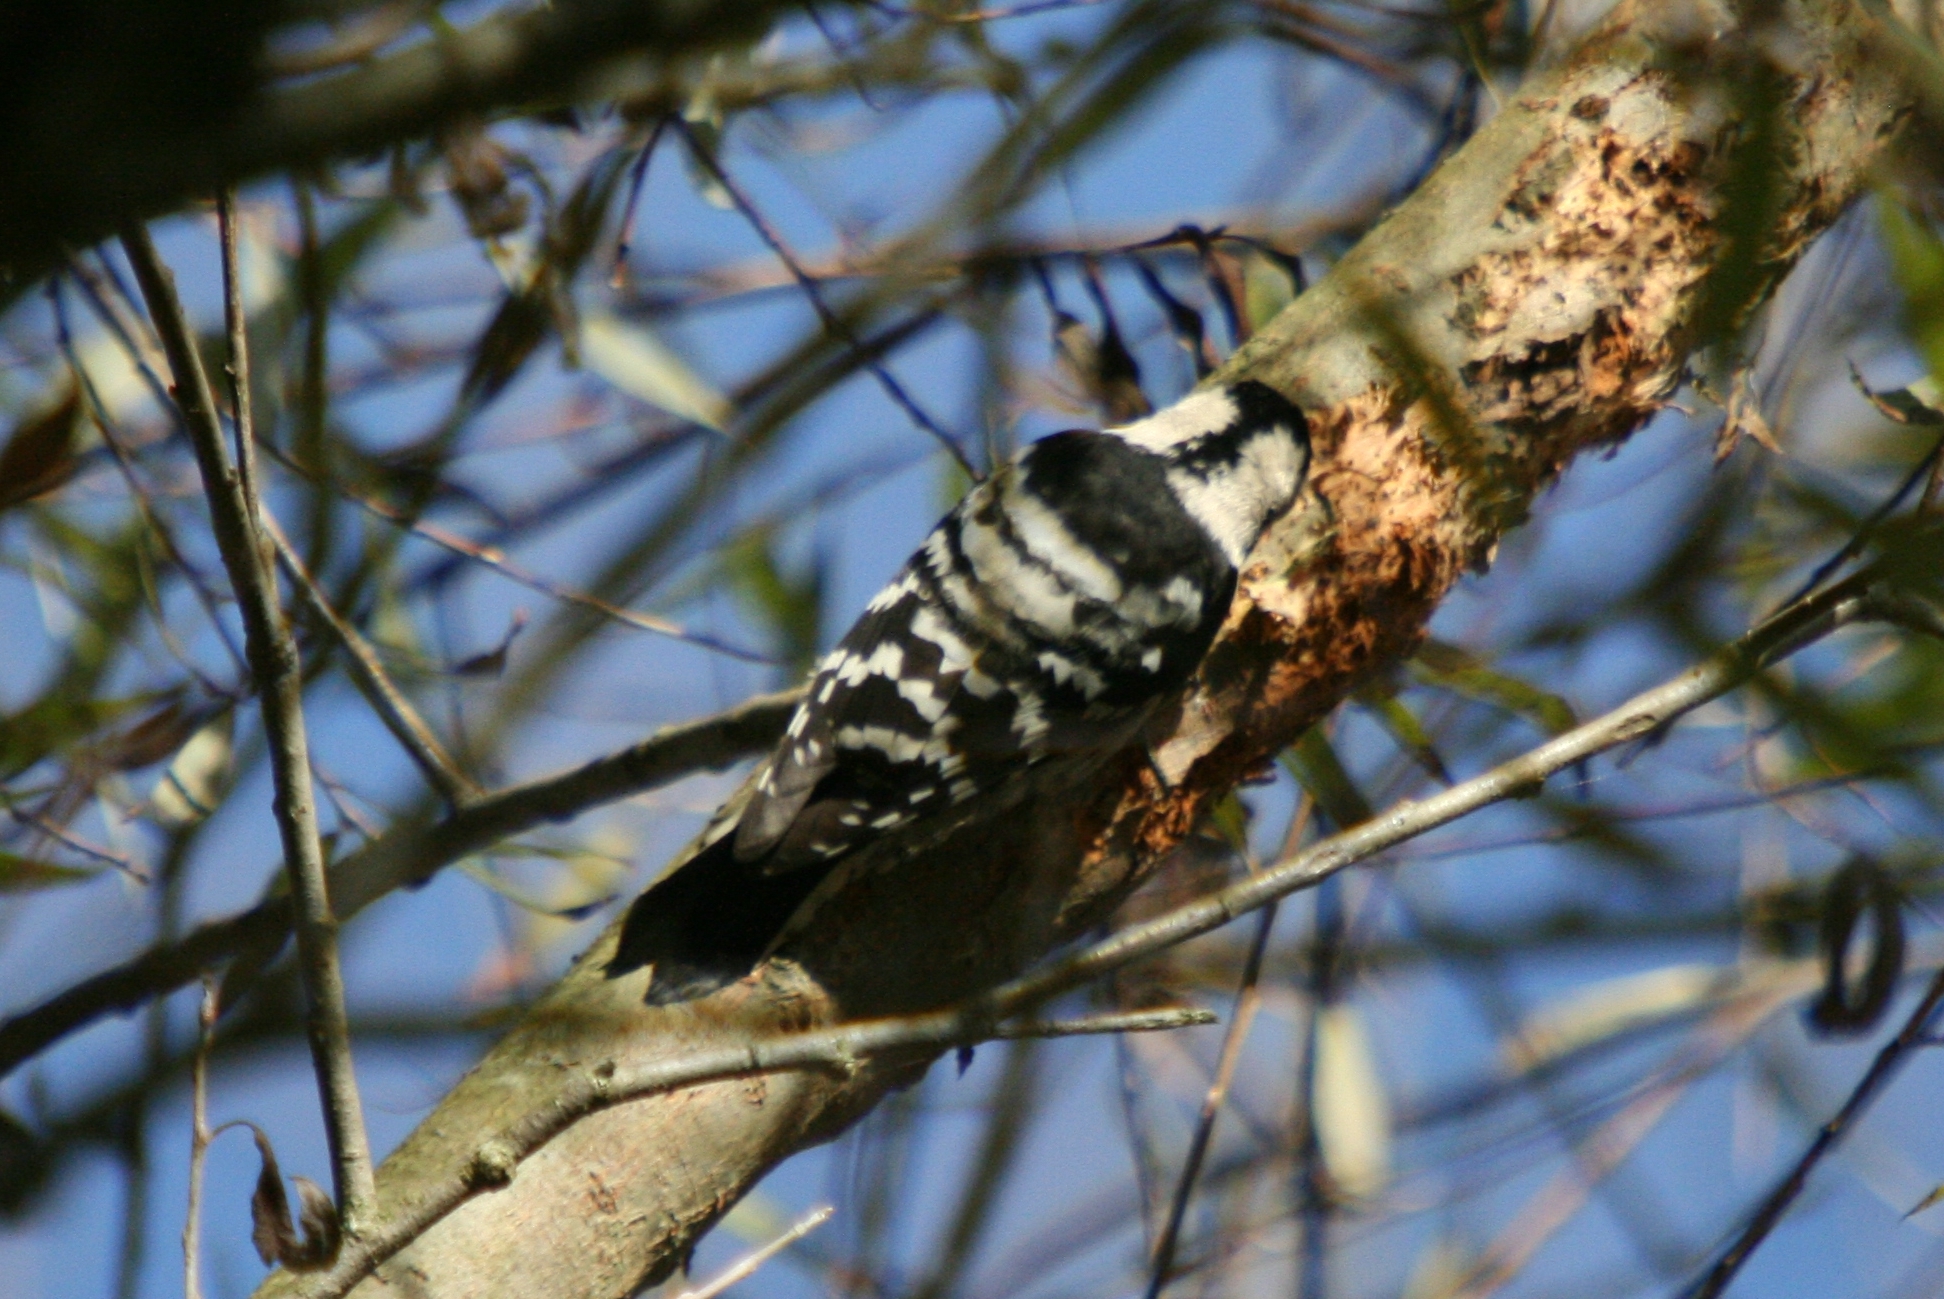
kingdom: Animalia
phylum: Chordata
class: Aves
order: Piciformes
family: Picidae
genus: Dryobates
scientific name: Dryobates minor
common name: Lesser spotted woodpecker
